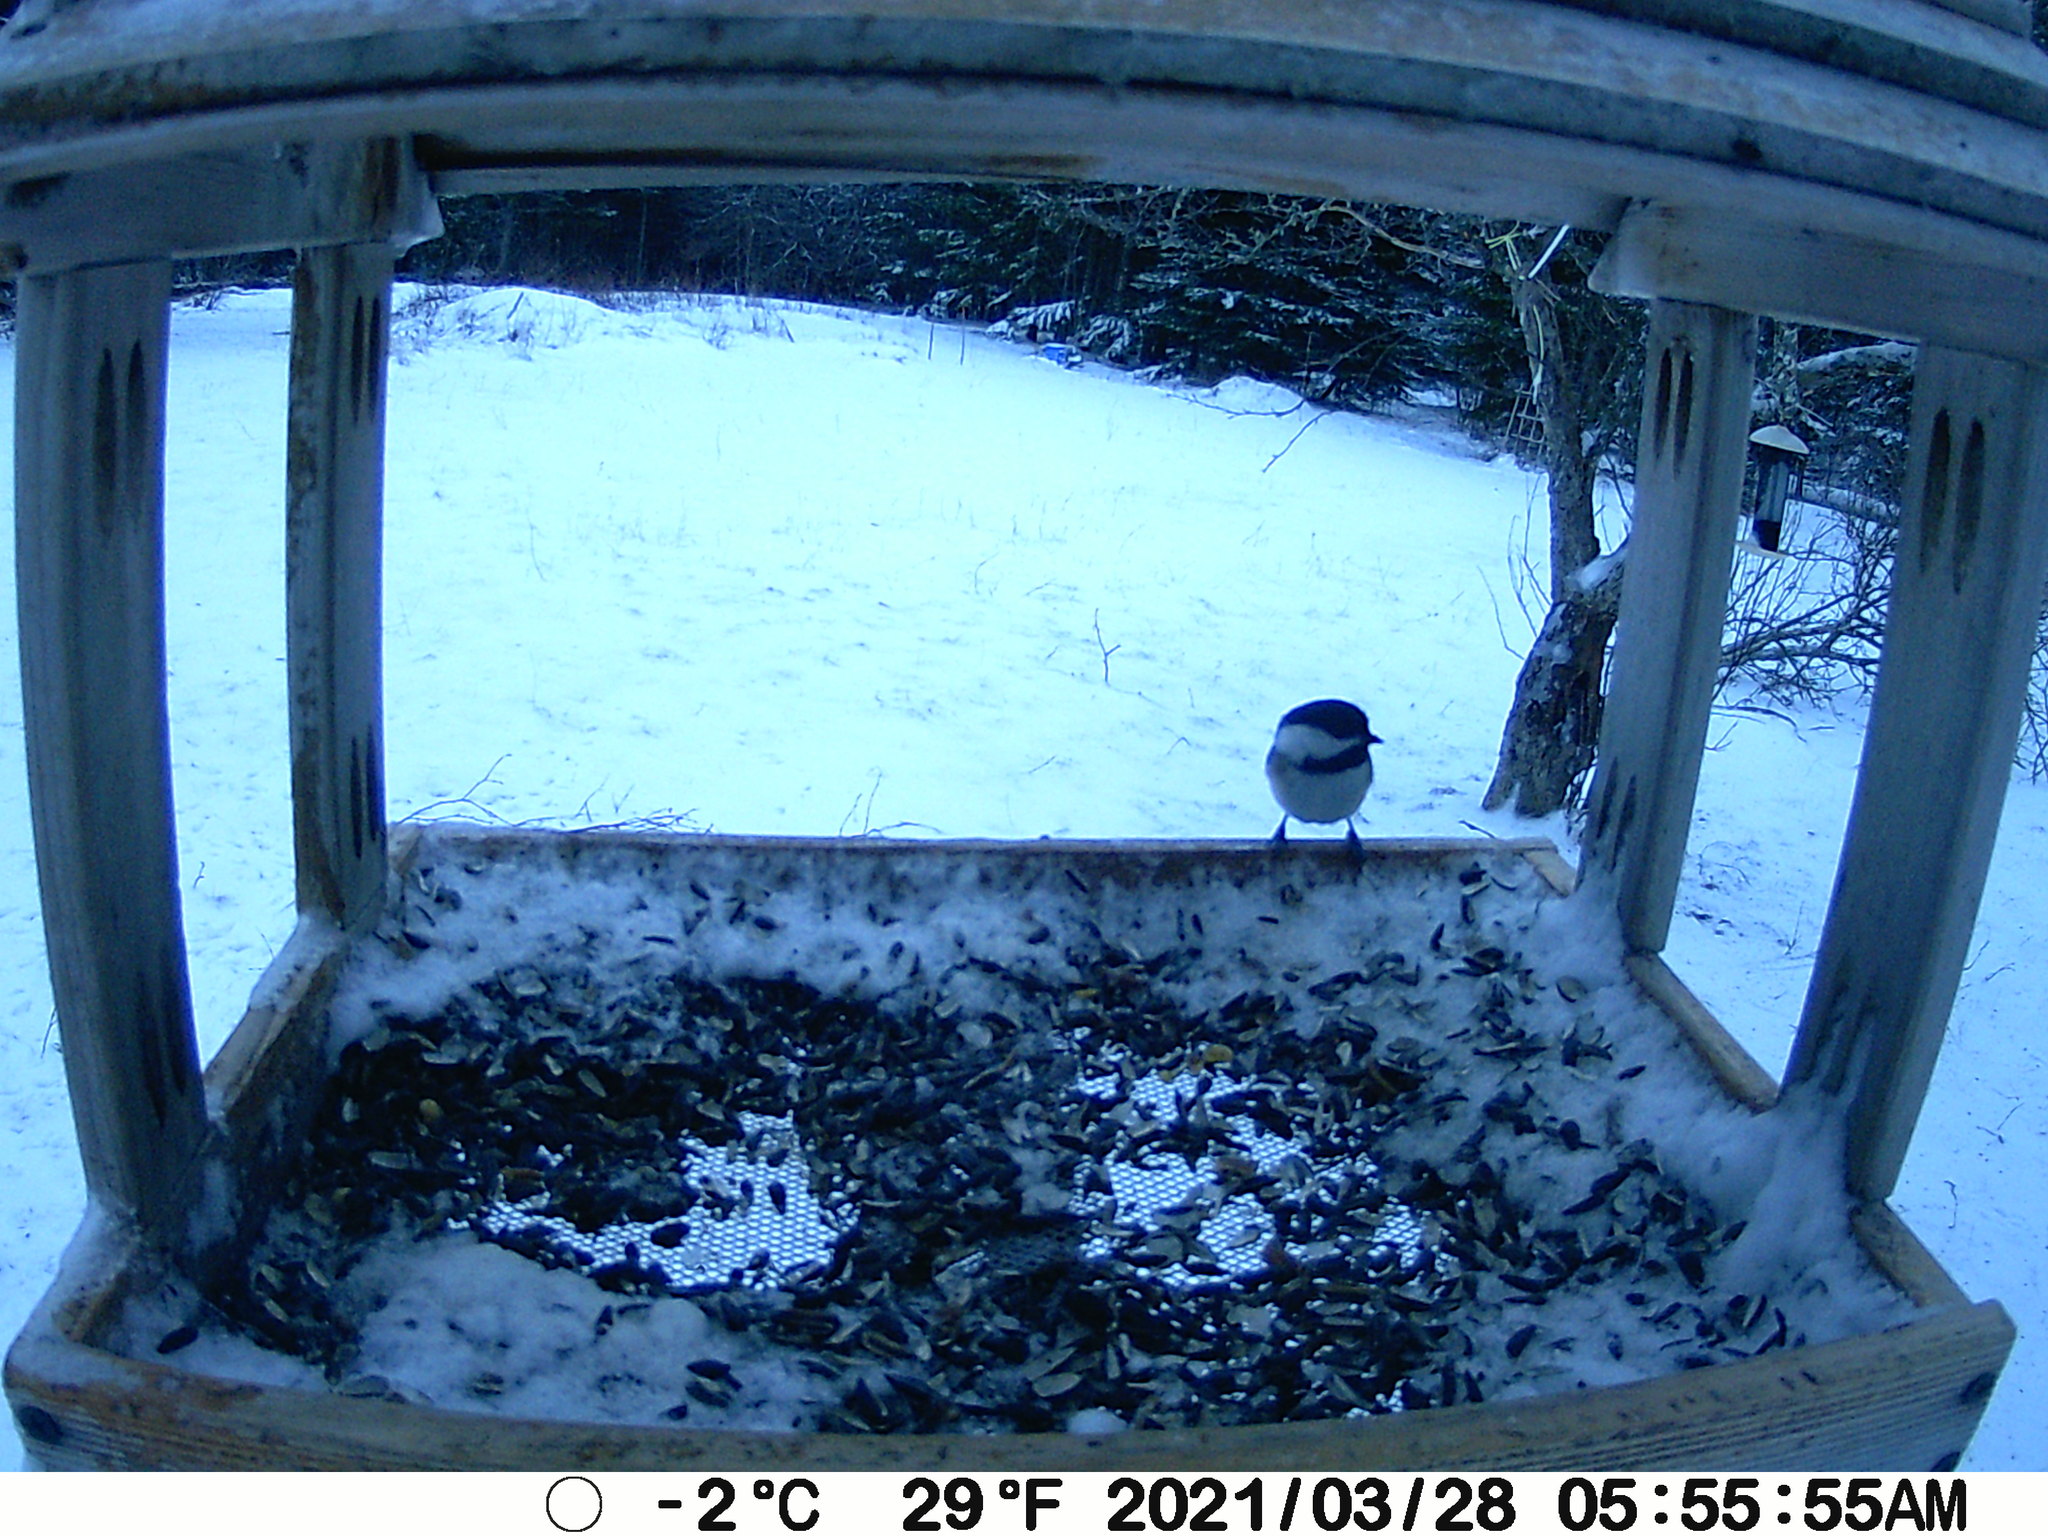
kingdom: Animalia
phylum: Chordata
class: Aves
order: Passeriformes
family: Paridae
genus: Poecile
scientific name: Poecile atricapillus
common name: Black-capped chickadee
